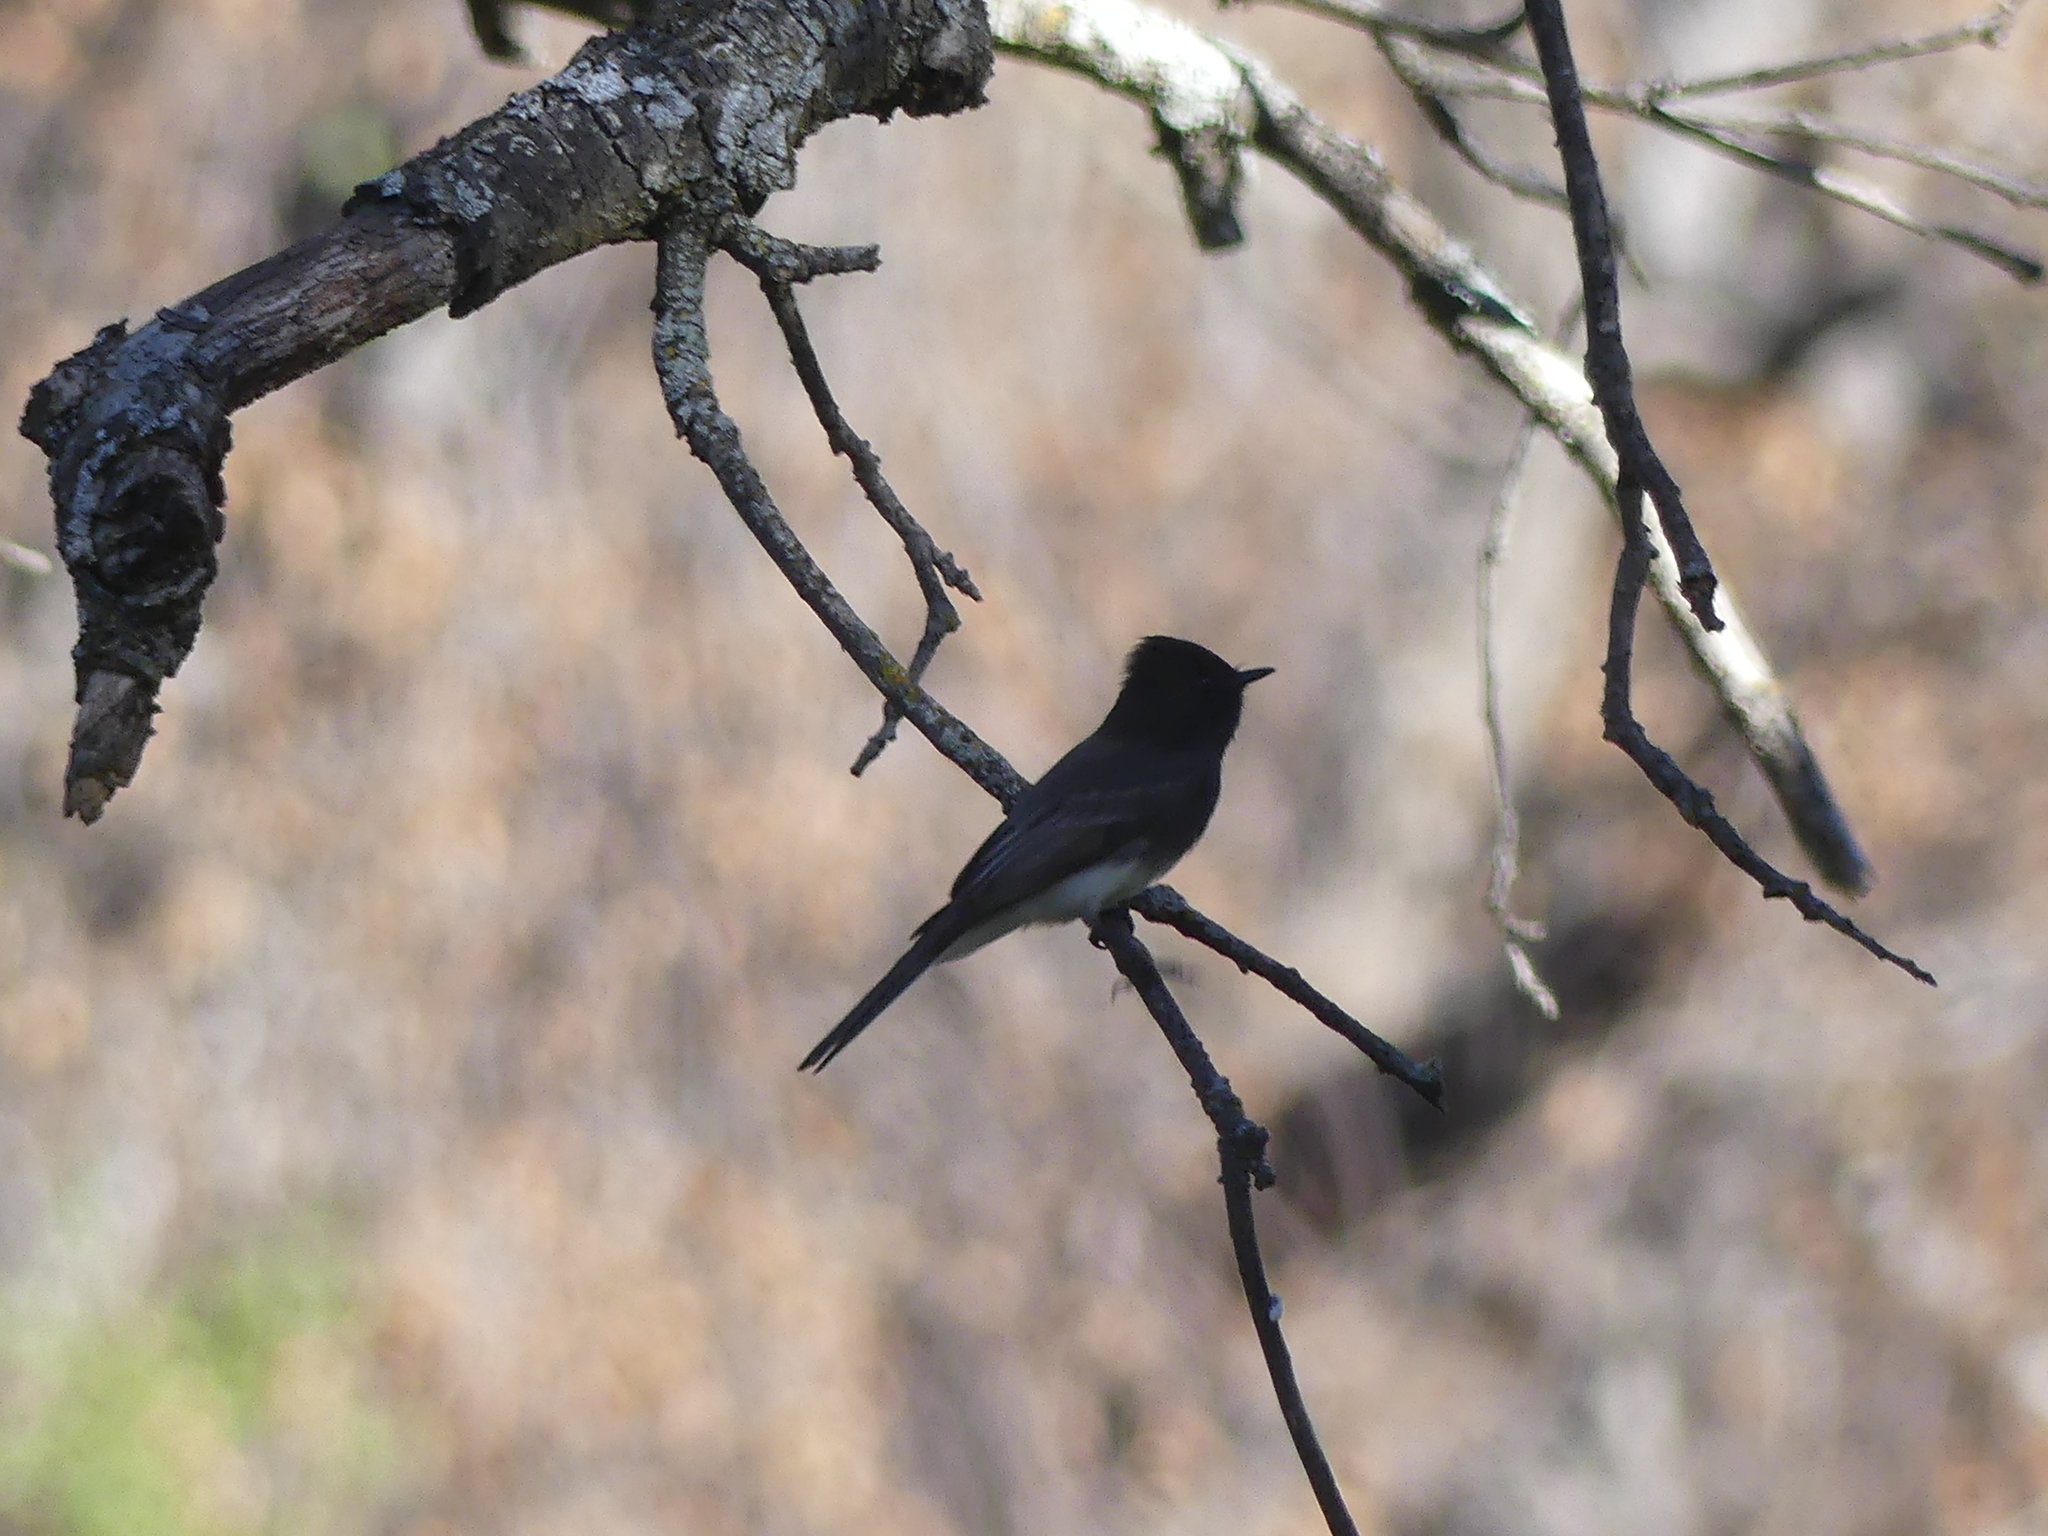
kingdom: Animalia
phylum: Chordata
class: Aves
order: Passeriformes
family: Tyrannidae
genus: Sayornis
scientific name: Sayornis nigricans
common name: Black phoebe
